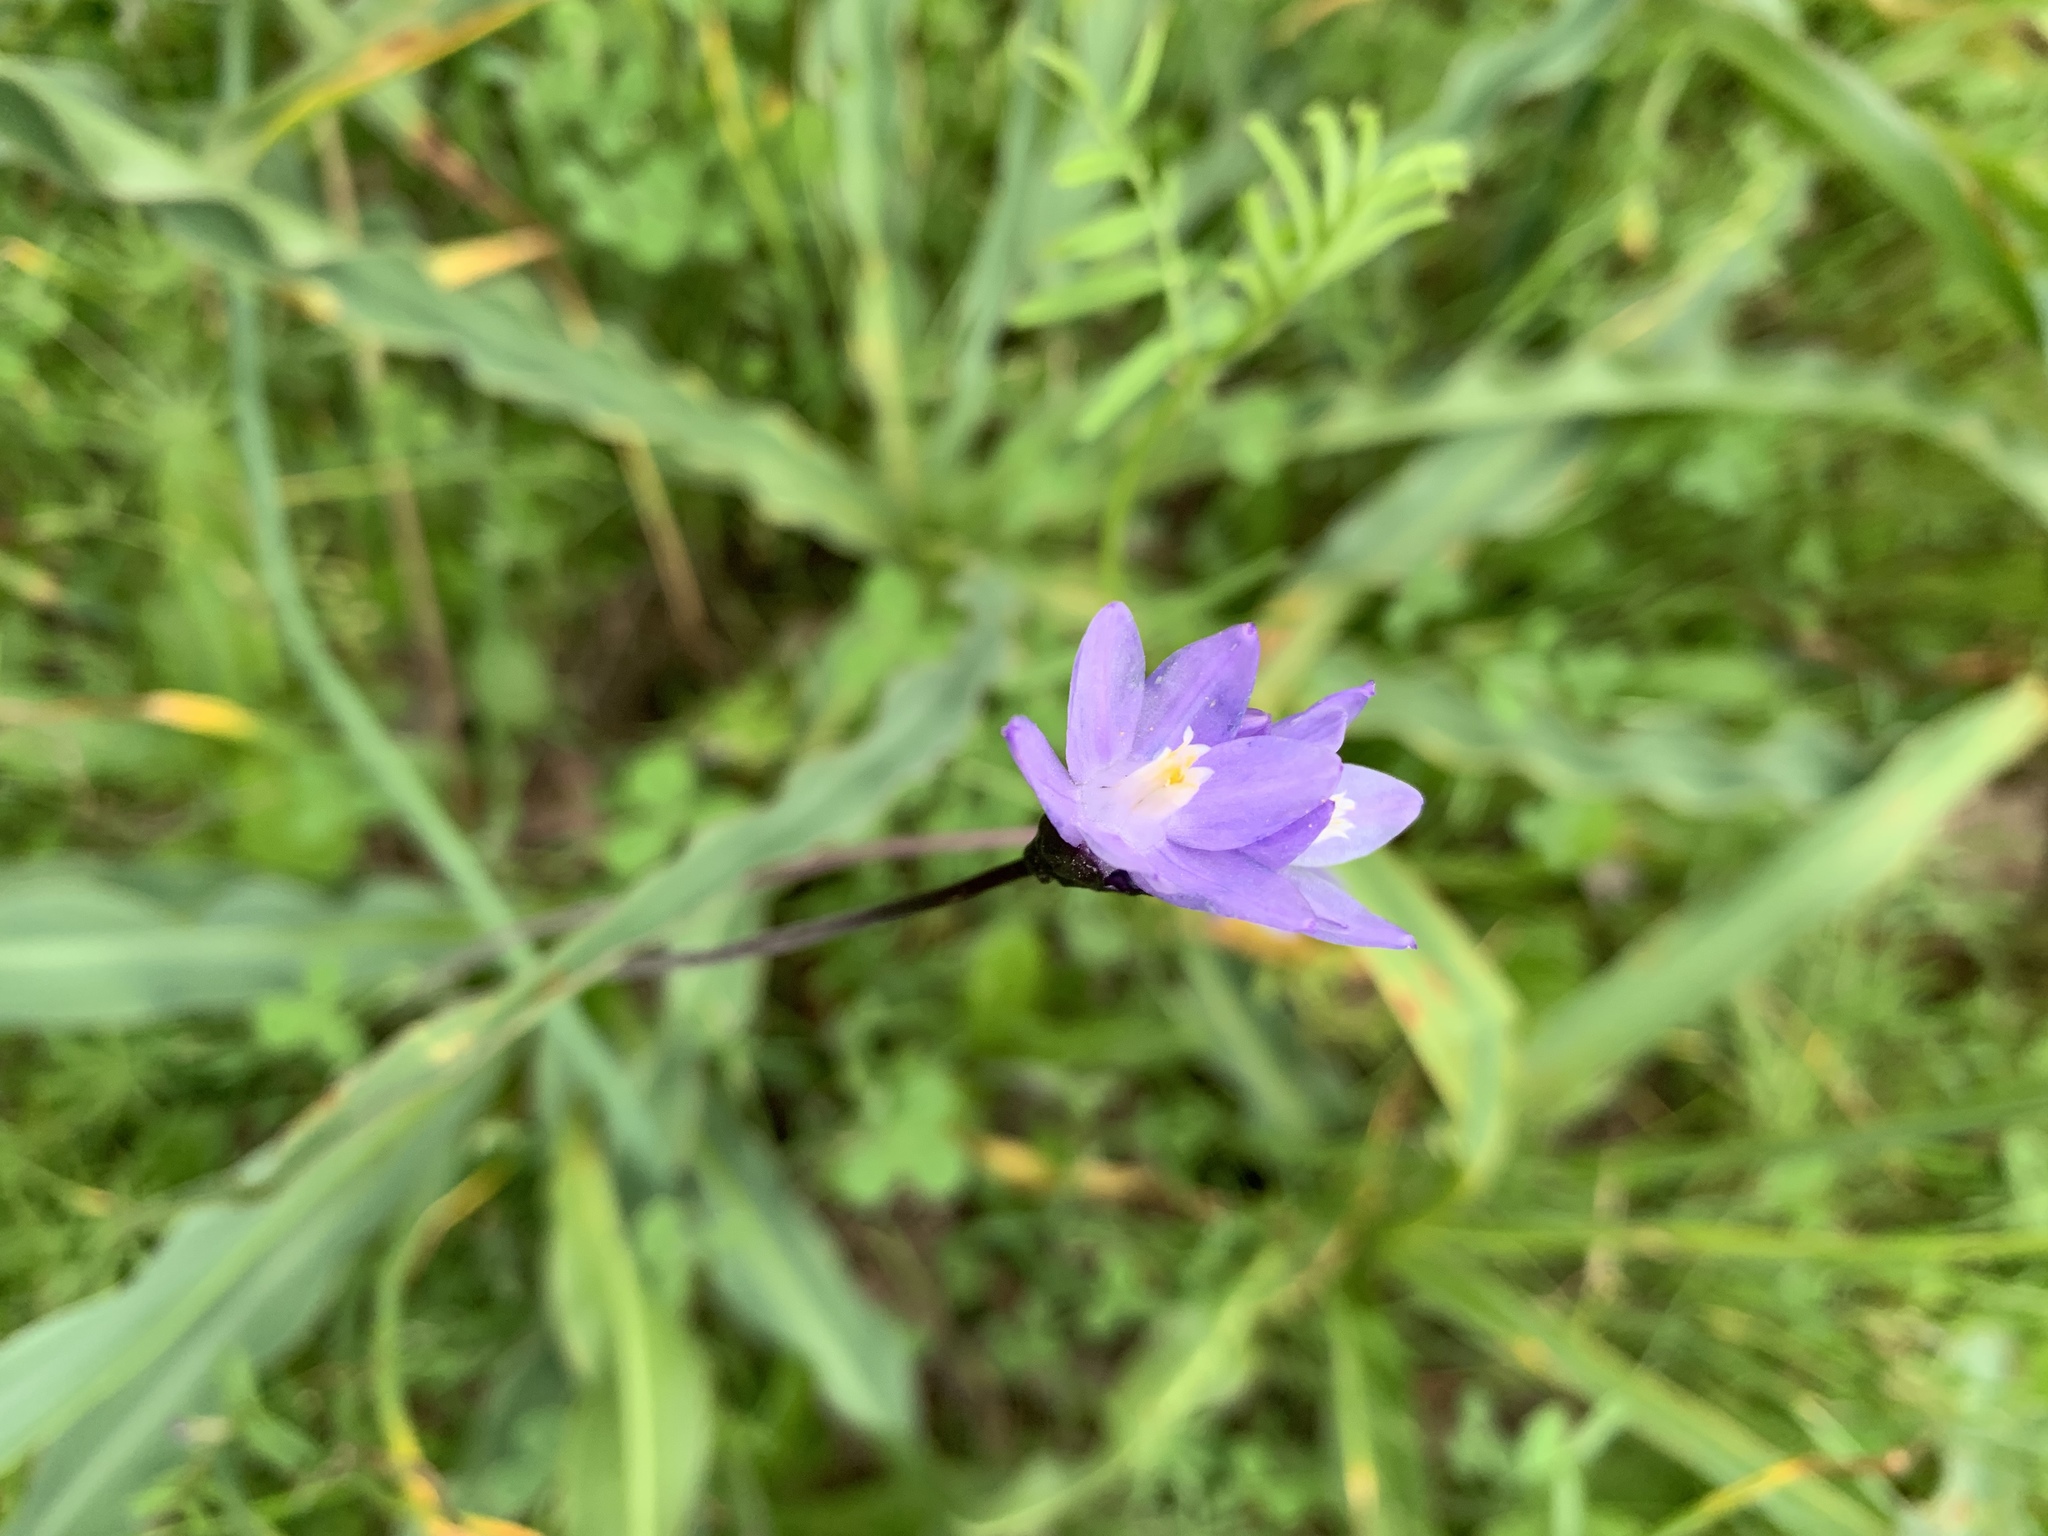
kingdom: Plantae
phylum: Tracheophyta
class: Liliopsida
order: Asparagales
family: Asparagaceae
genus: Dipterostemon
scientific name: Dipterostemon capitatus
